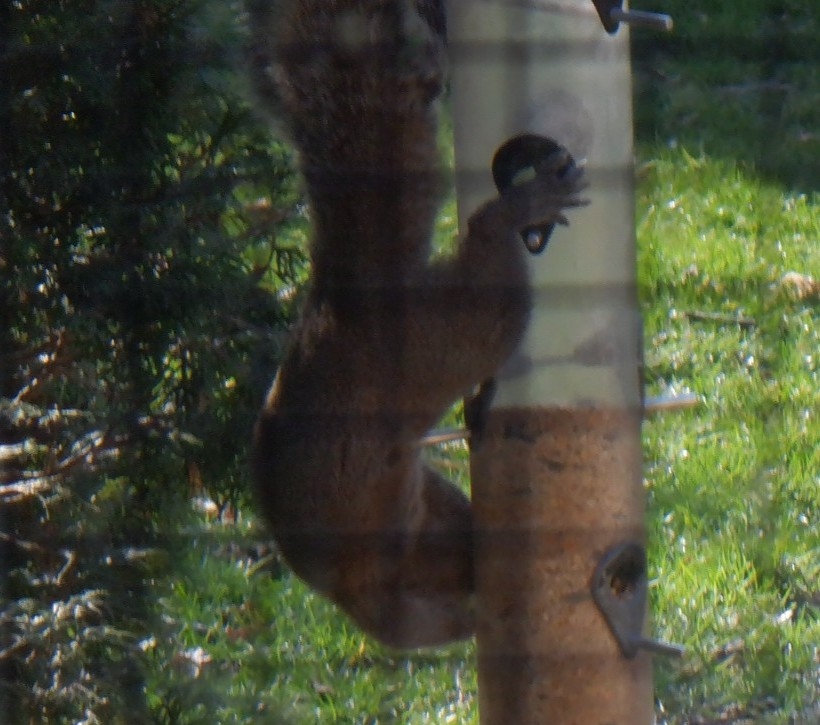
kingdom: Animalia
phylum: Chordata
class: Mammalia
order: Rodentia
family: Sciuridae
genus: Sciurus
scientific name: Sciurus carolinensis
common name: Eastern gray squirrel
